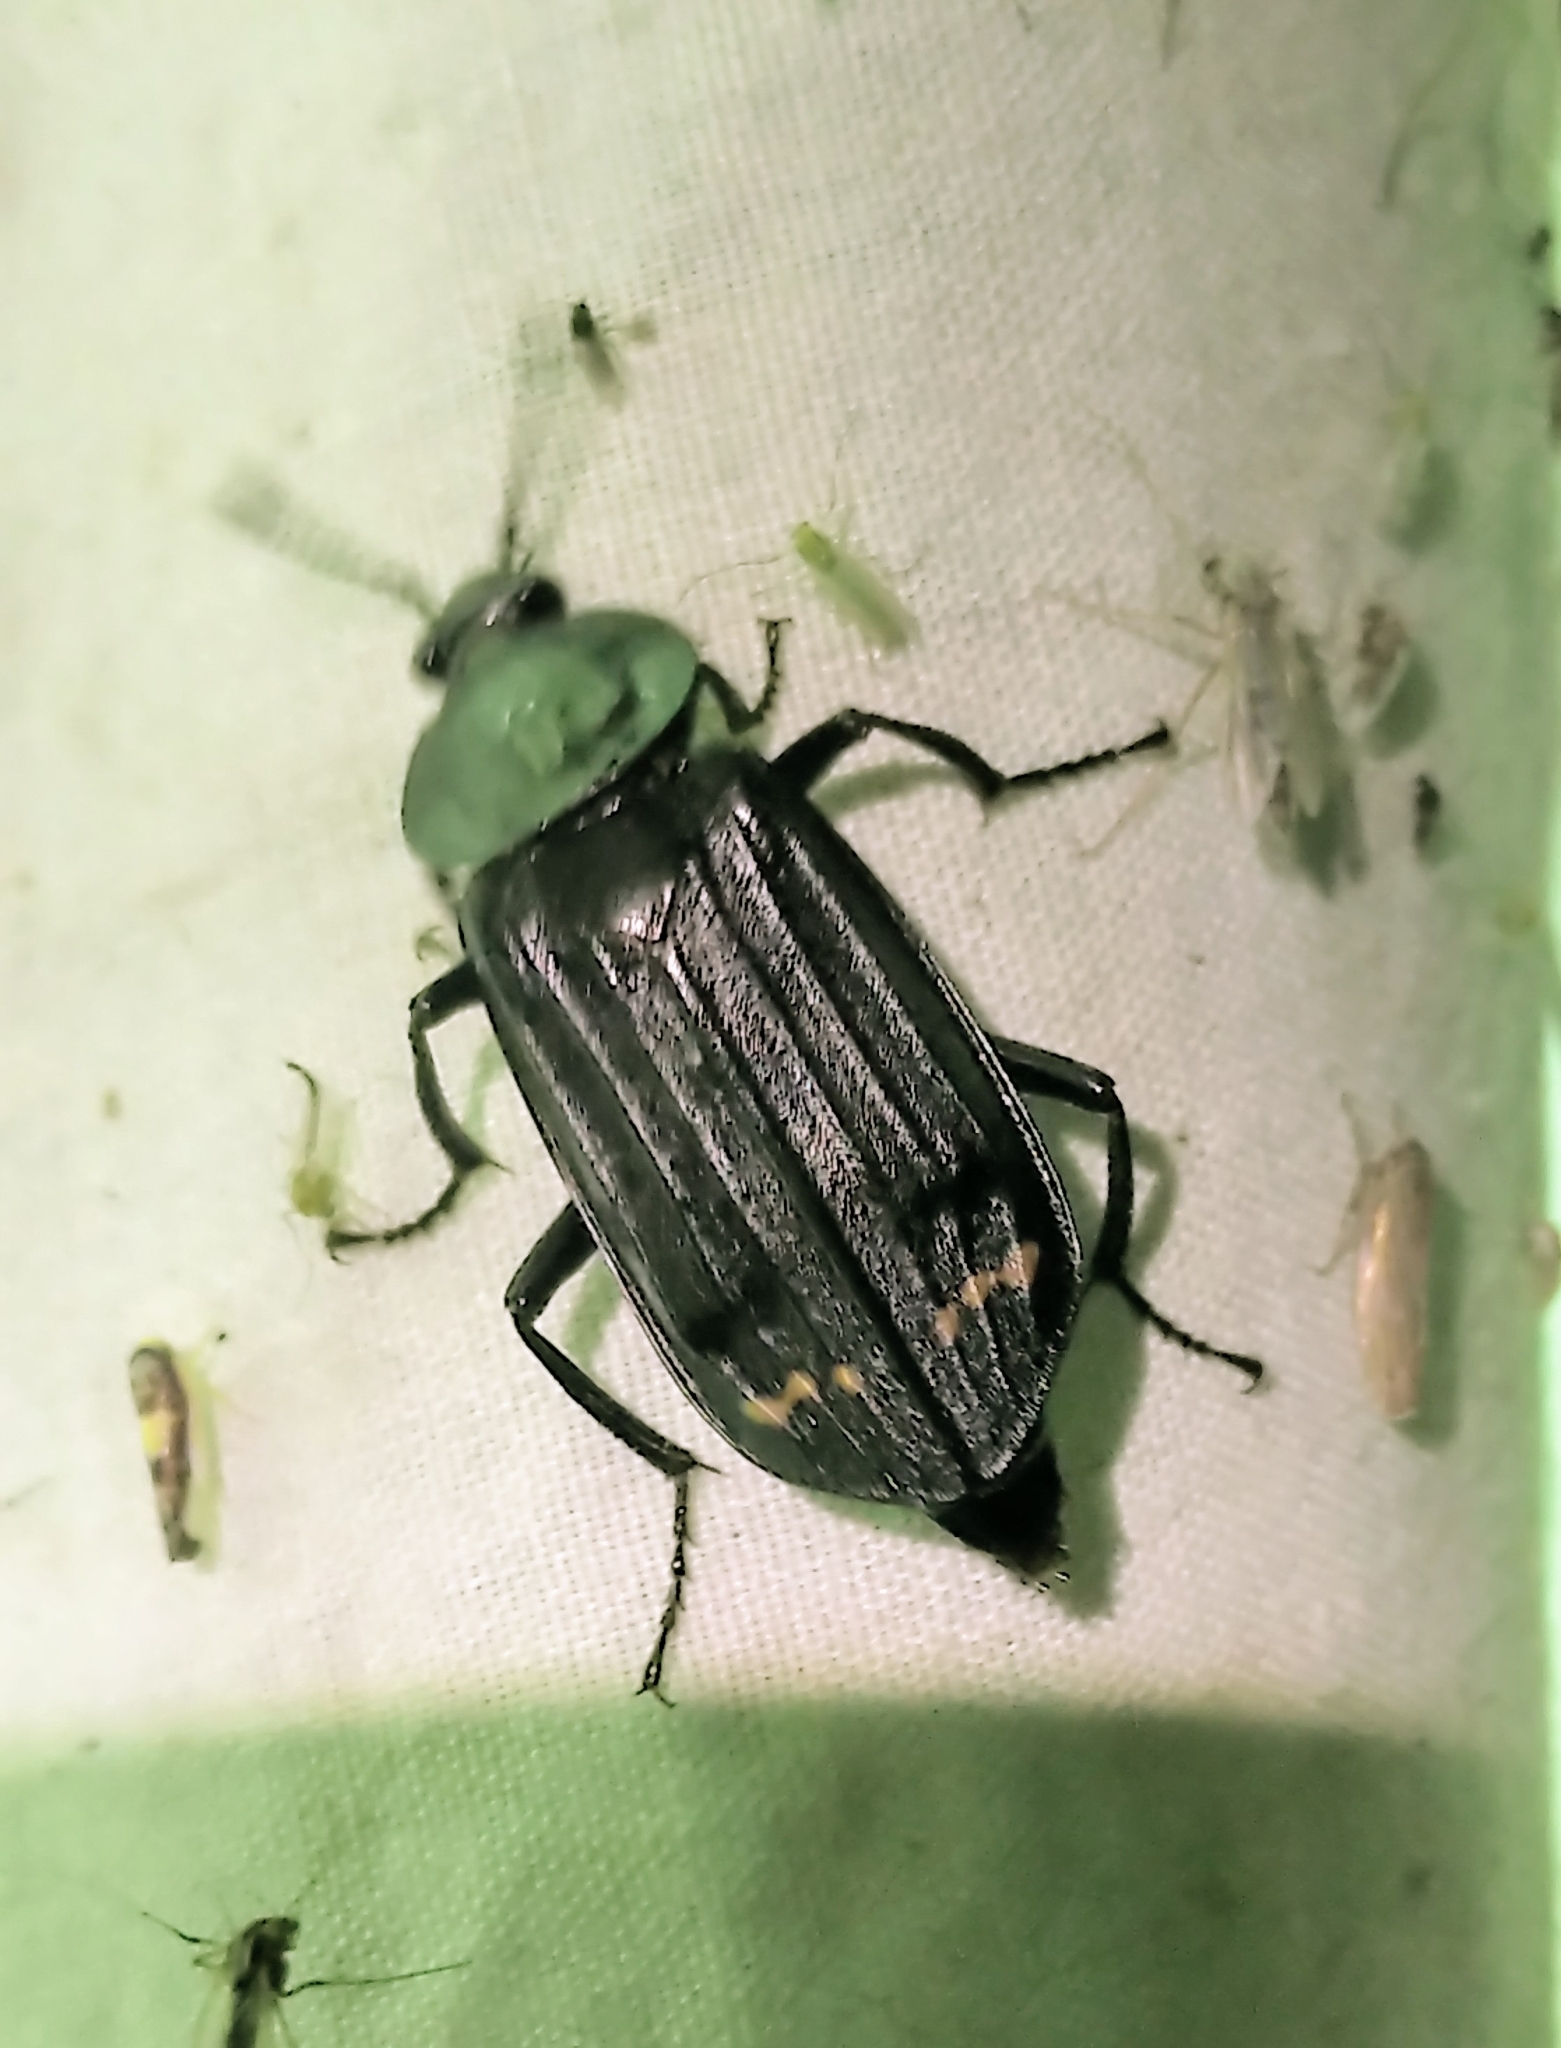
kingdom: Animalia
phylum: Arthropoda
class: Insecta
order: Coleoptera
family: Staphylinidae
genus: Necrodes
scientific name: Necrodes surinamensis
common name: Red-lined carrion beetle
